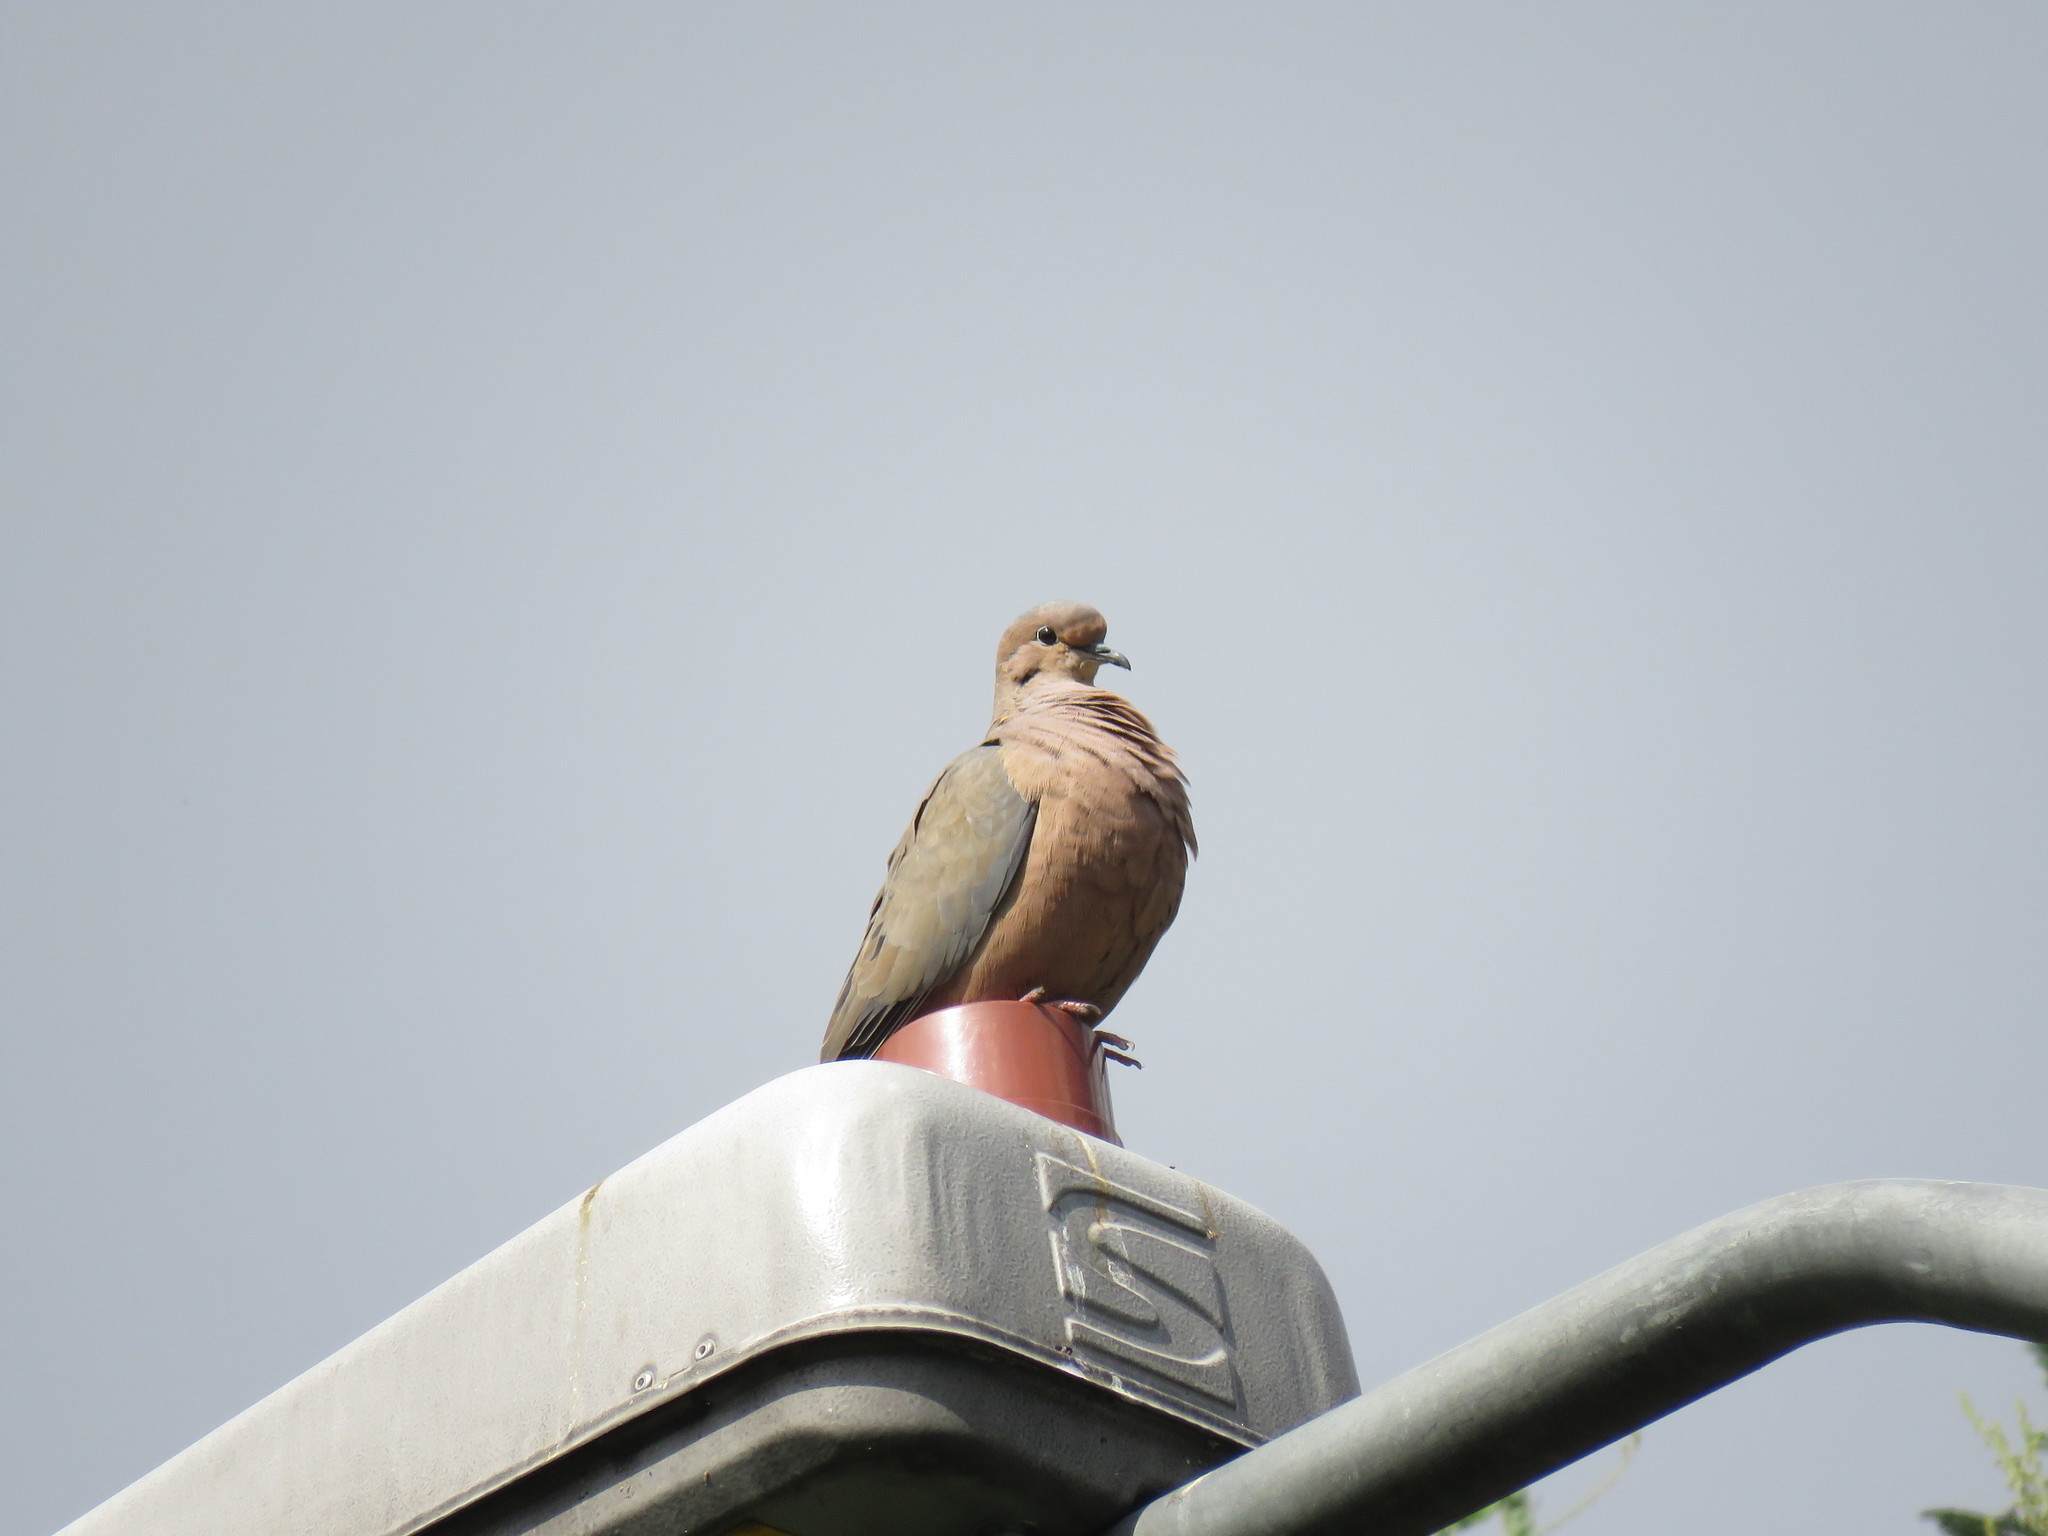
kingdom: Animalia
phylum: Chordata
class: Aves
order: Columbiformes
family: Columbidae
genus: Zenaida
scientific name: Zenaida auriculata
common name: Eared dove
